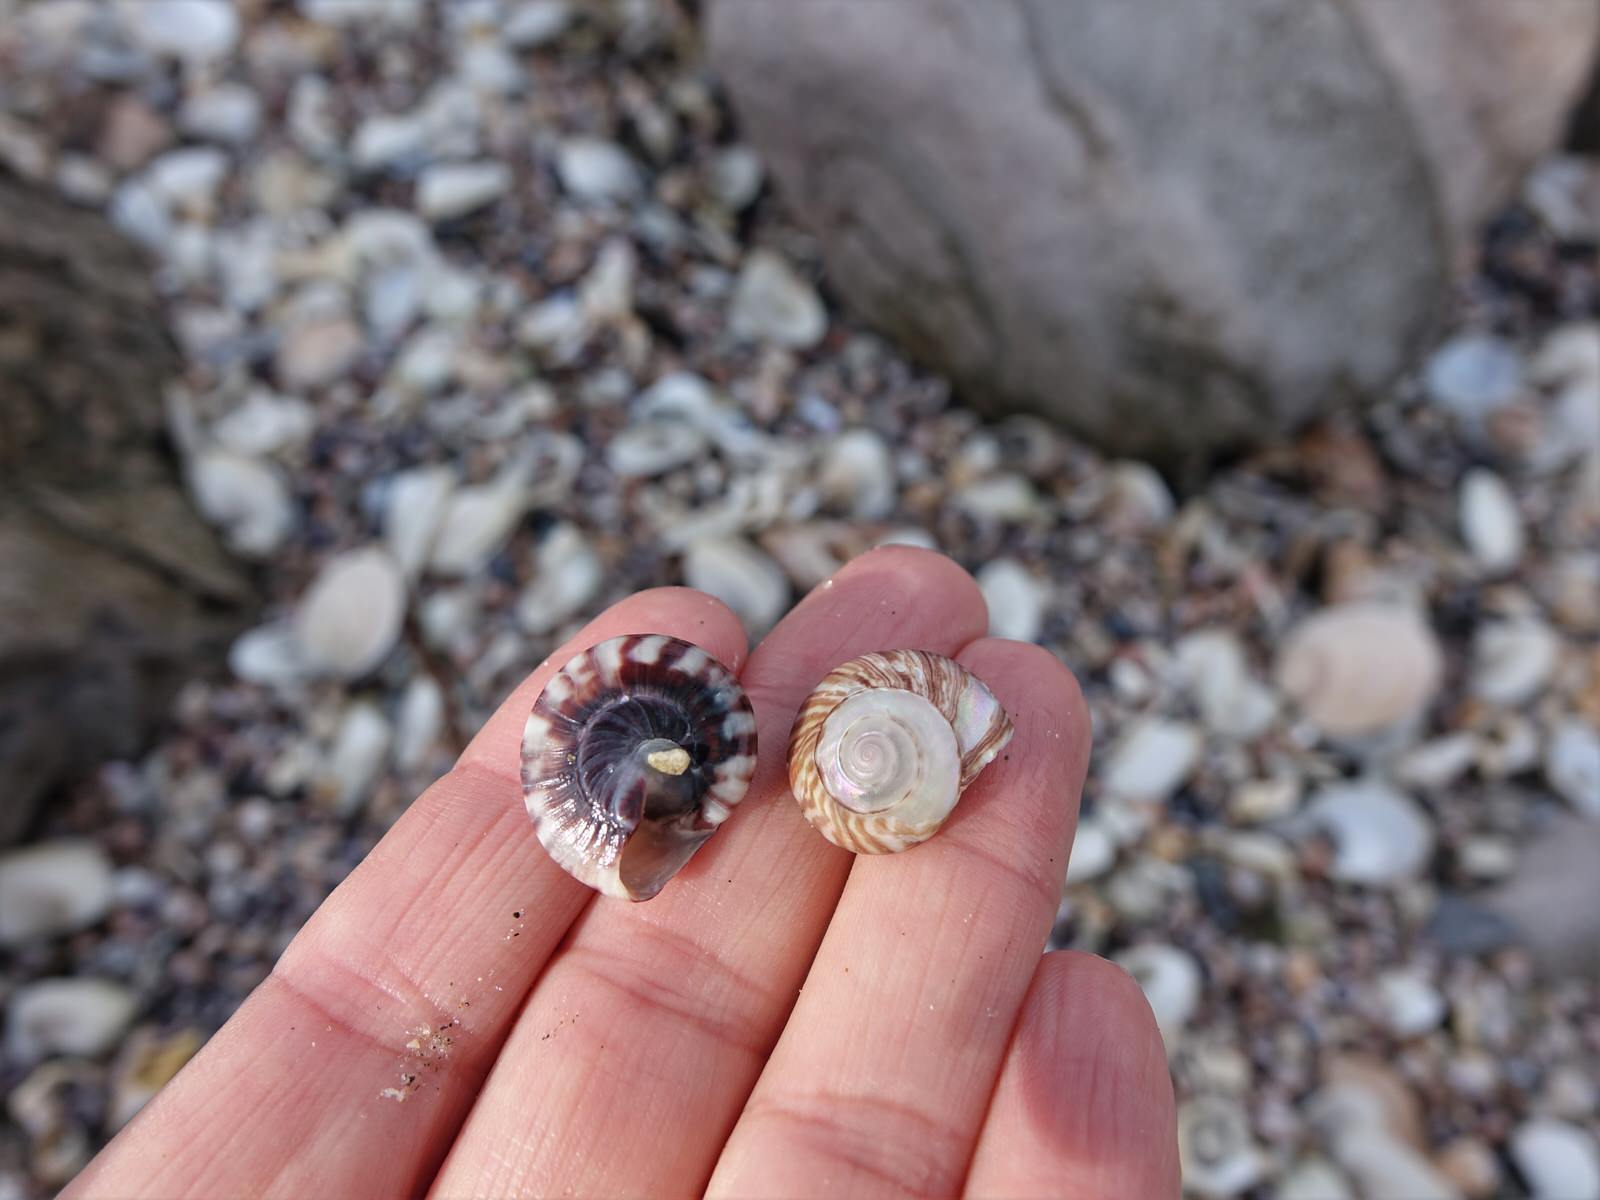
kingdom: Animalia
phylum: Mollusca
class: Gastropoda
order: Trochida
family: Trochidae
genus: Zethalia
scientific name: Zethalia zelandica
